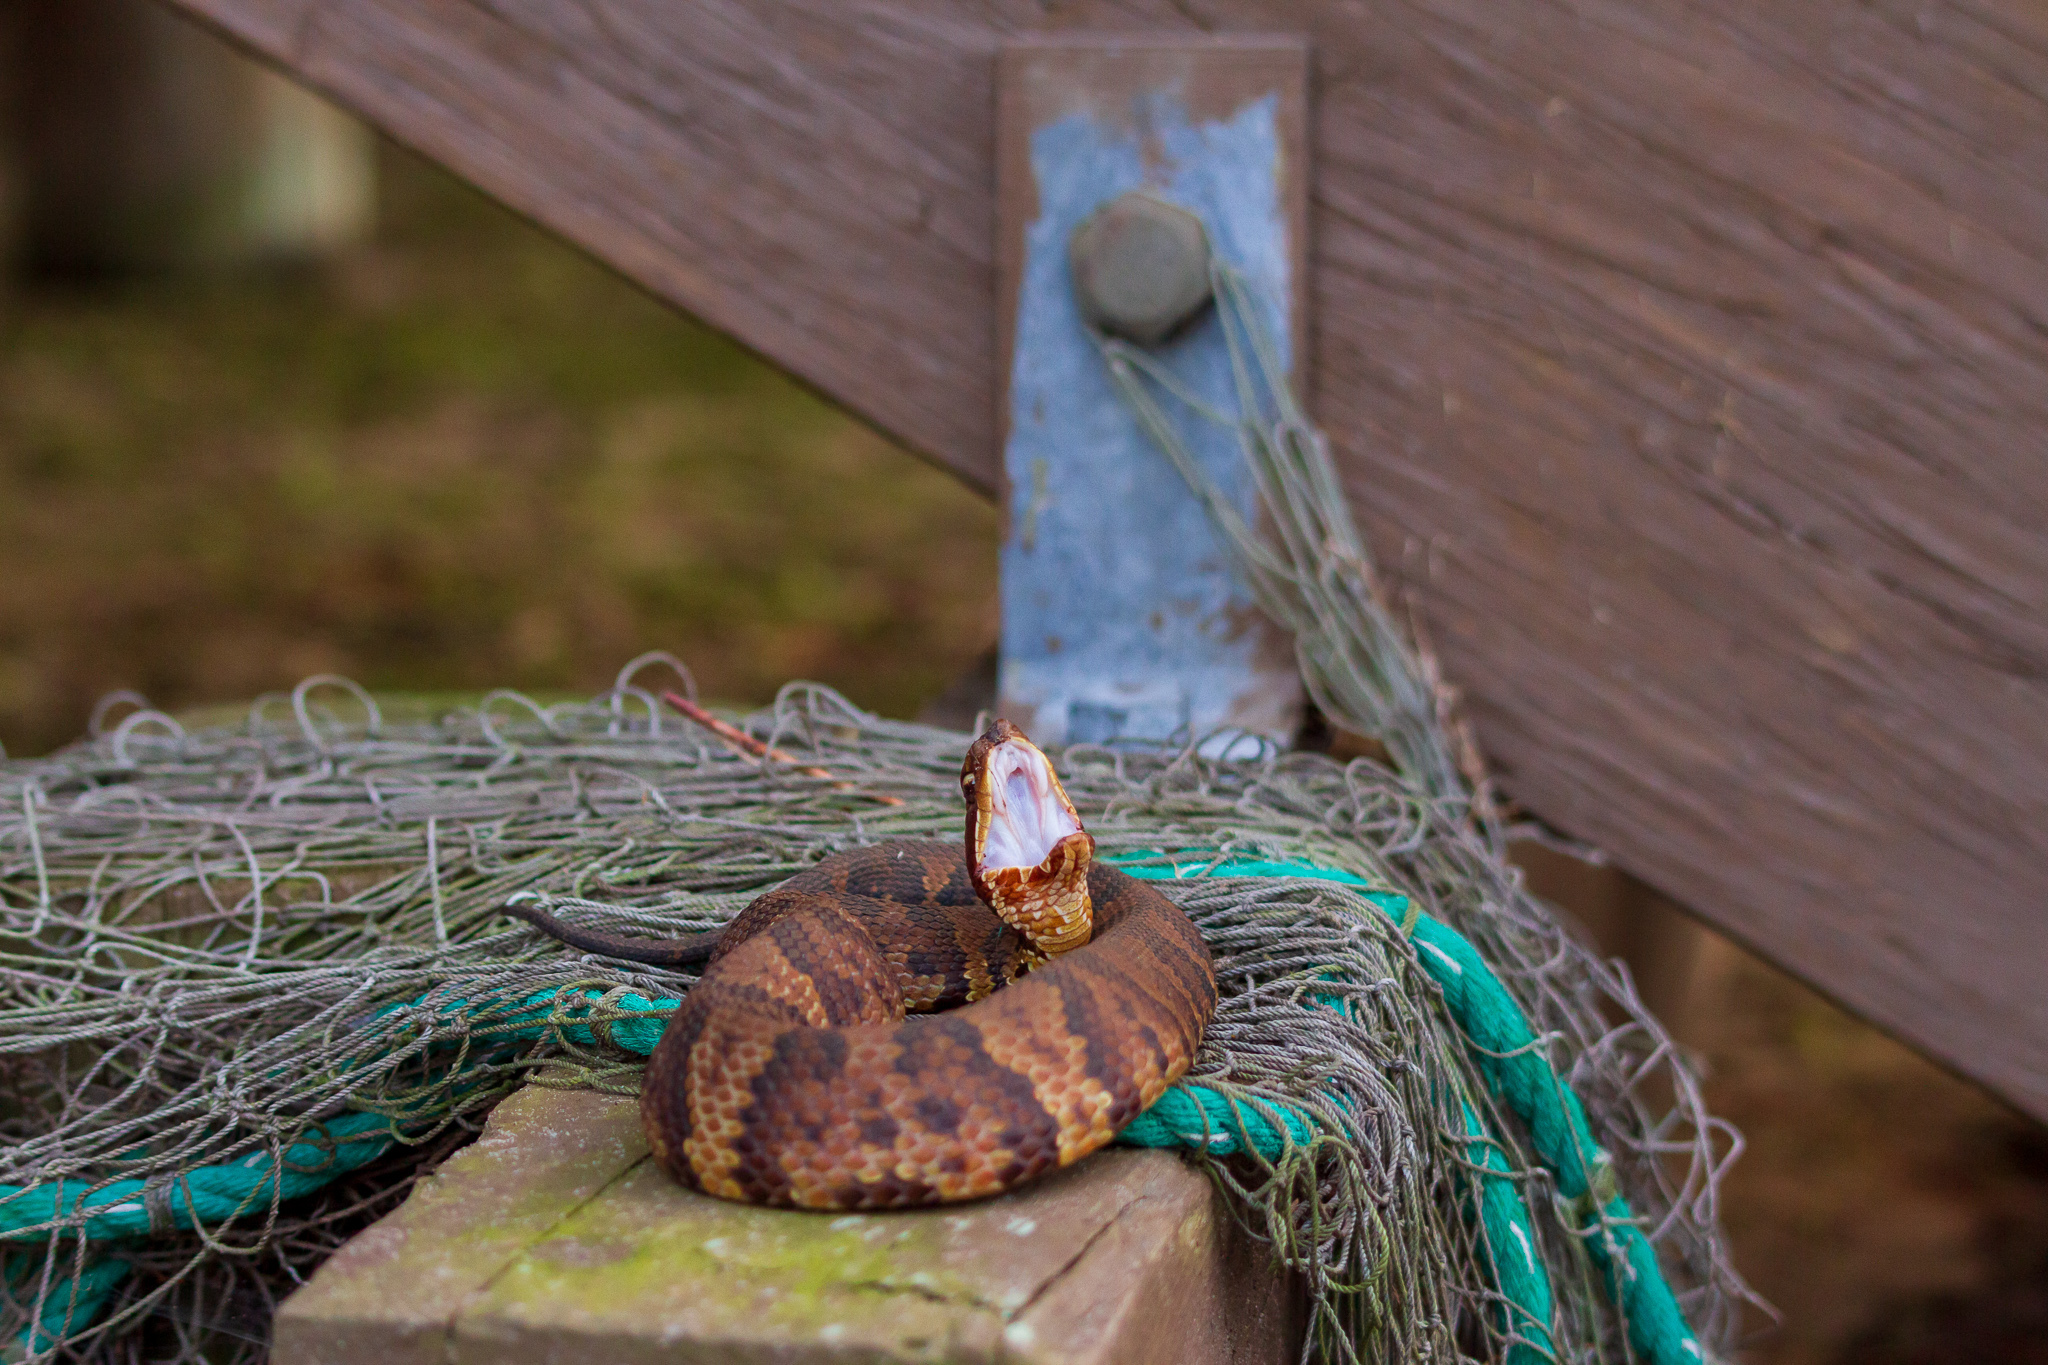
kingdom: Animalia
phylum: Chordata
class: Squamata
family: Viperidae
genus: Agkistrodon
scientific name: Agkistrodon piscivorus
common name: Cottonmouth
